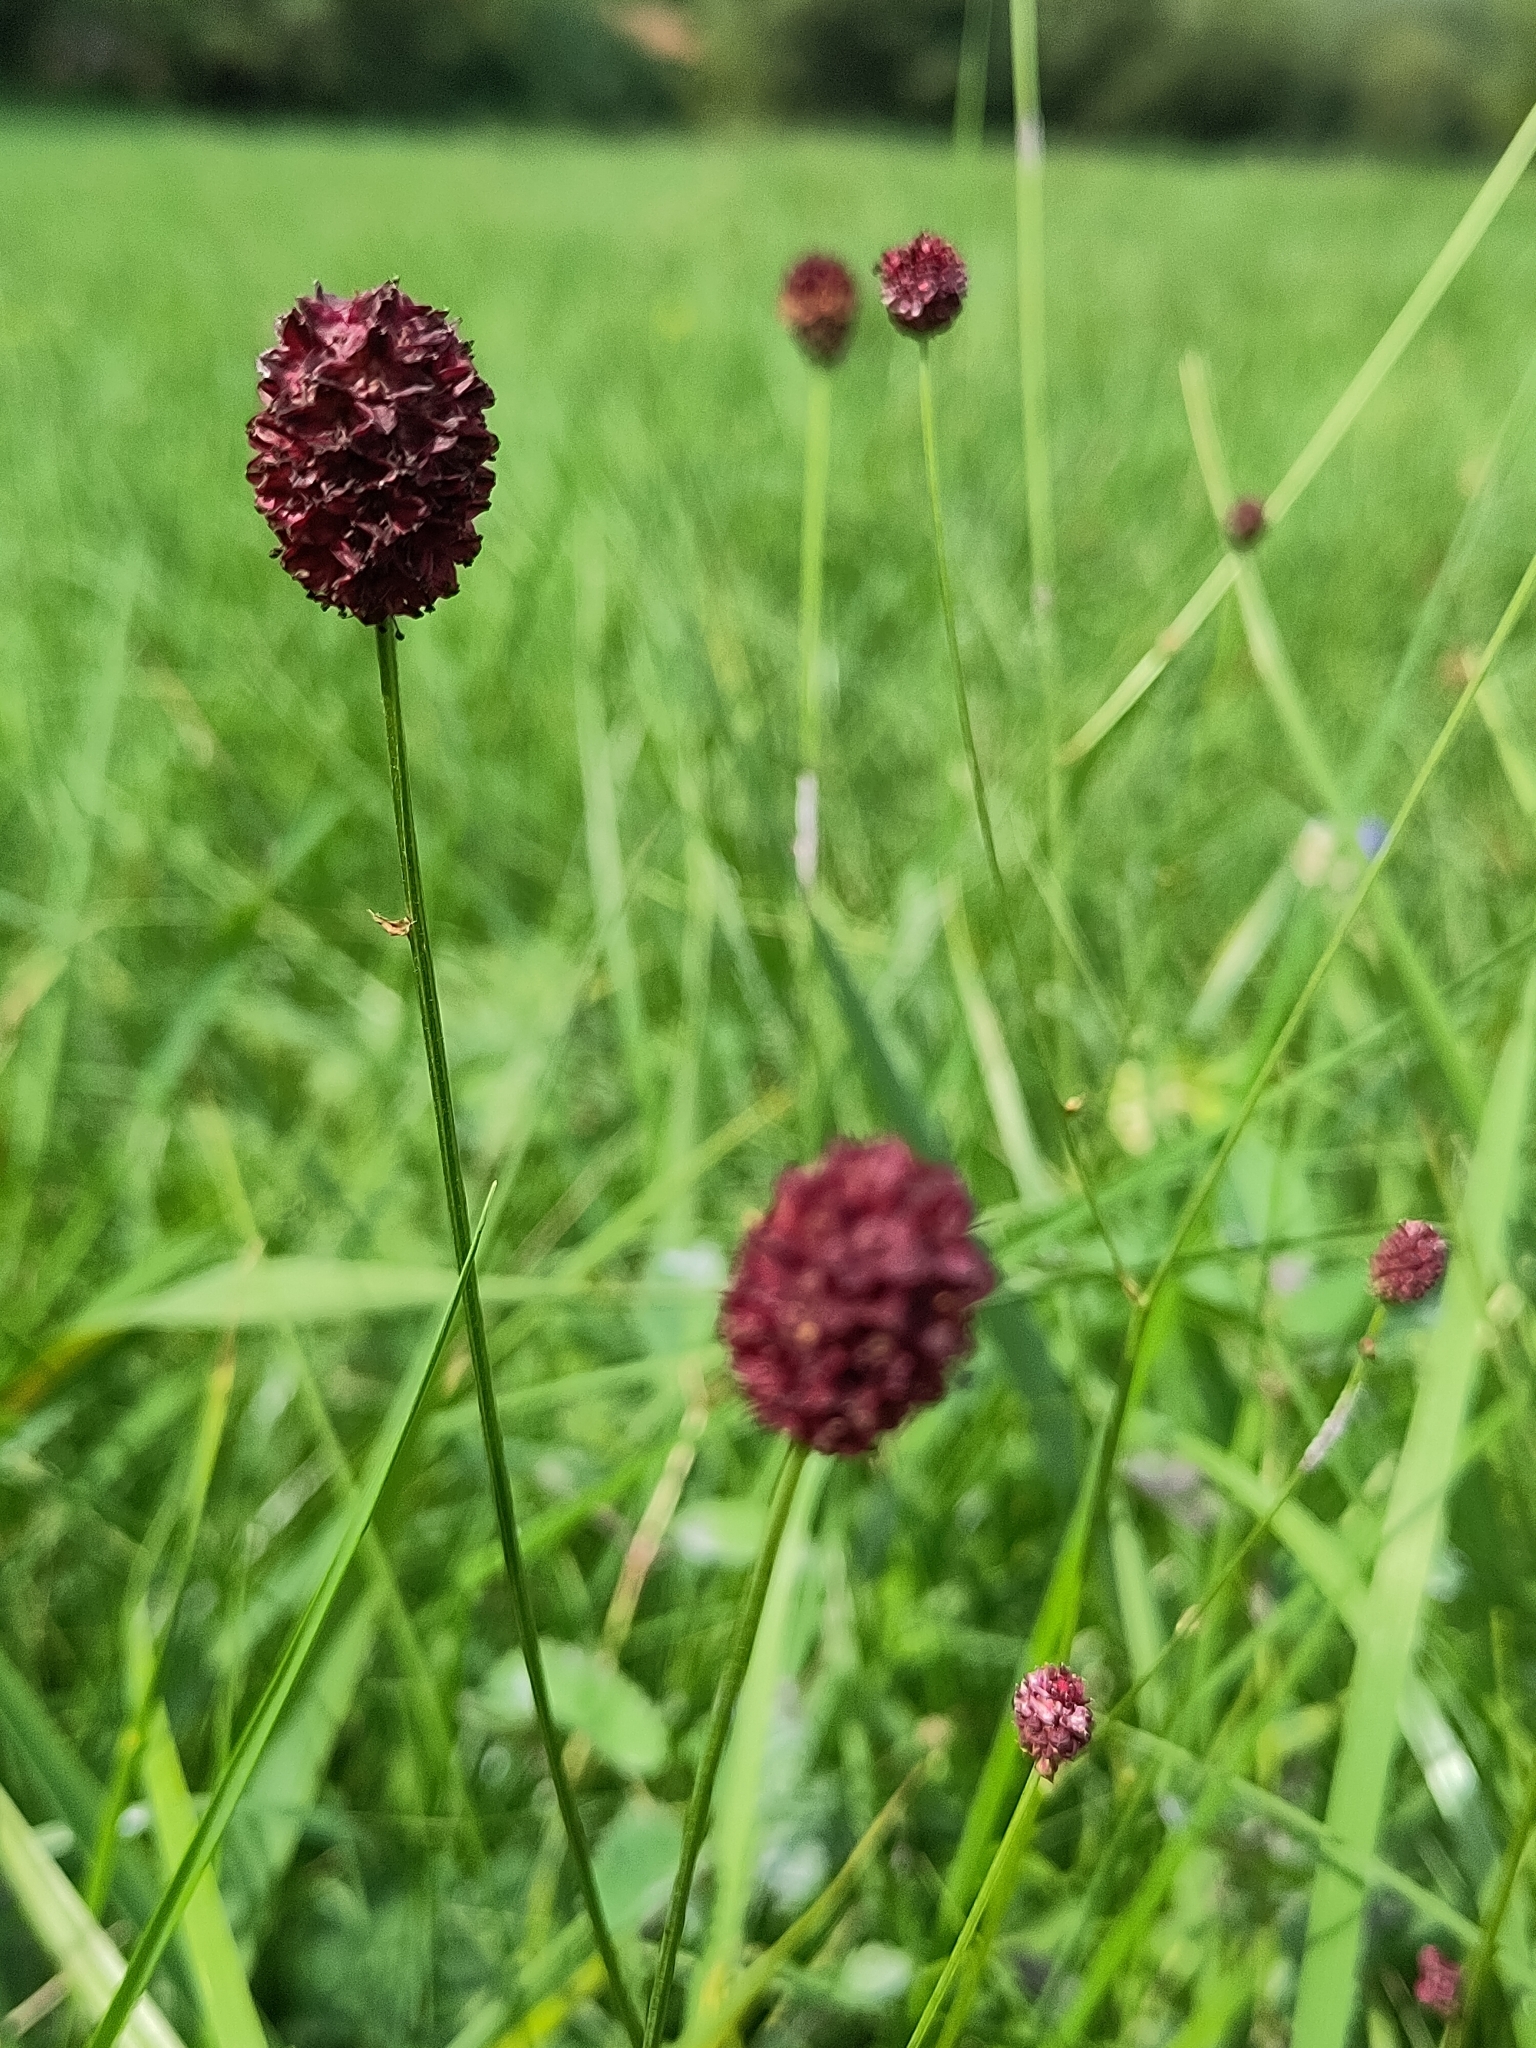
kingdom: Plantae
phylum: Tracheophyta
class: Magnoliopsida
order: Rosales
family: Rosaceae
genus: Sanguisorba
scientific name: Sanguisorba officinalis
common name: Great burnet
